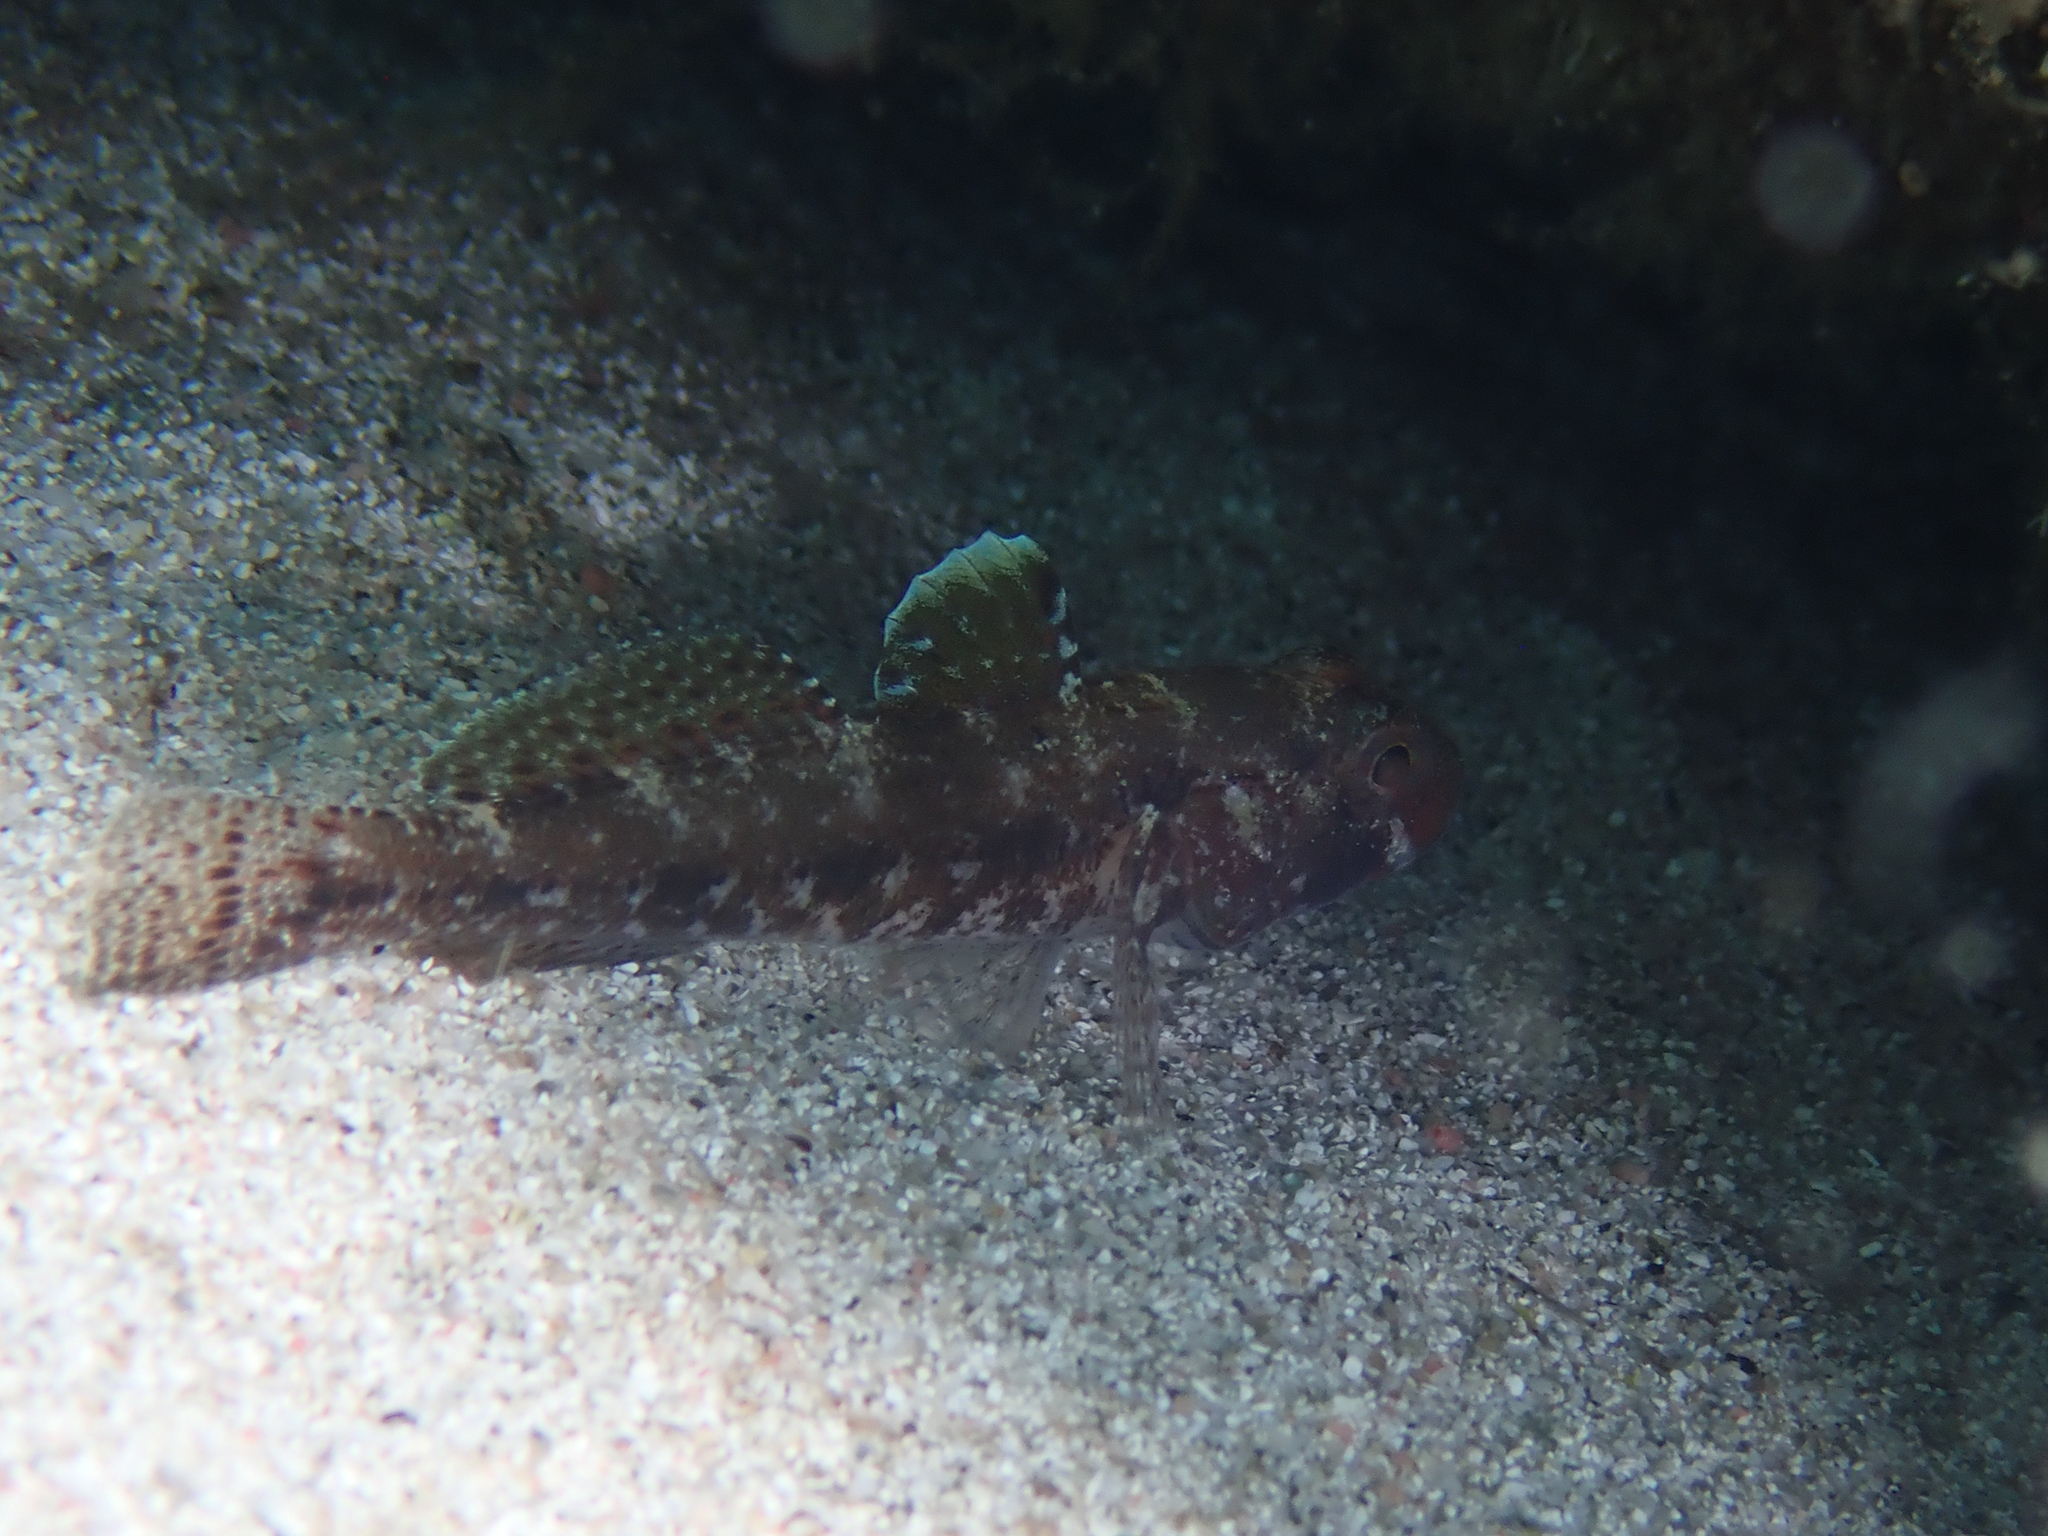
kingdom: Animalia
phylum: Chordata
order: Perciformes
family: Gobiidae
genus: Gobius
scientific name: Gobius cruentatus
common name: Red-mouthed goby
